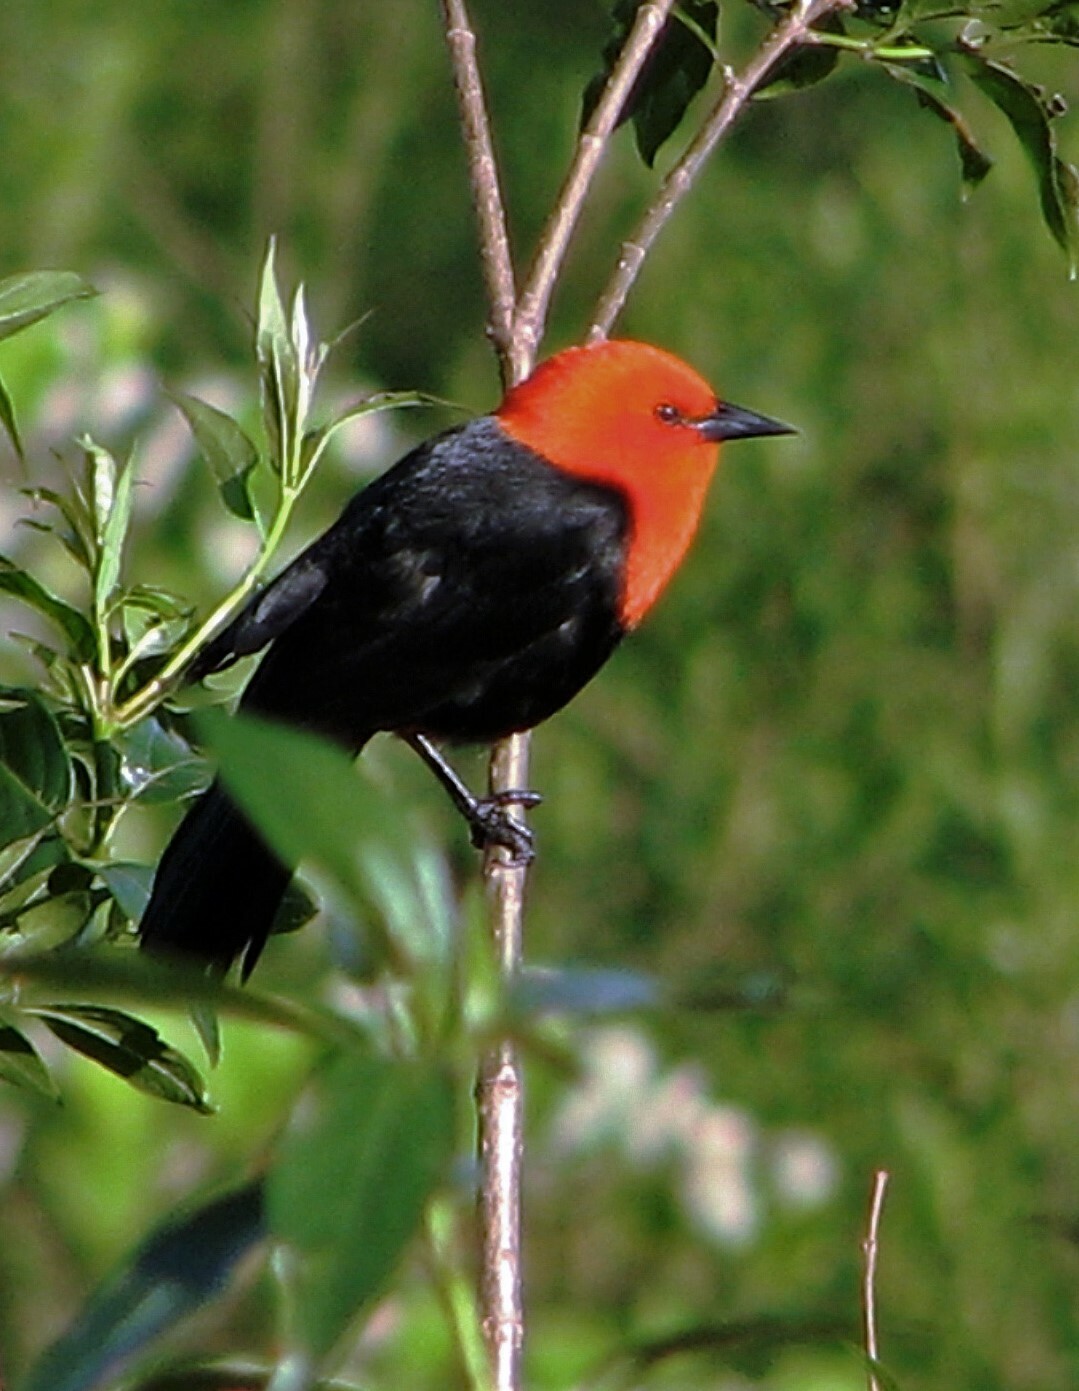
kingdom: Animalia
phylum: Chordata
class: Aves
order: Passeriformes
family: Icteridae
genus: Amblyramphus
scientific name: Amblyramphus holosericeus
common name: Scarlet-headed blackbird
